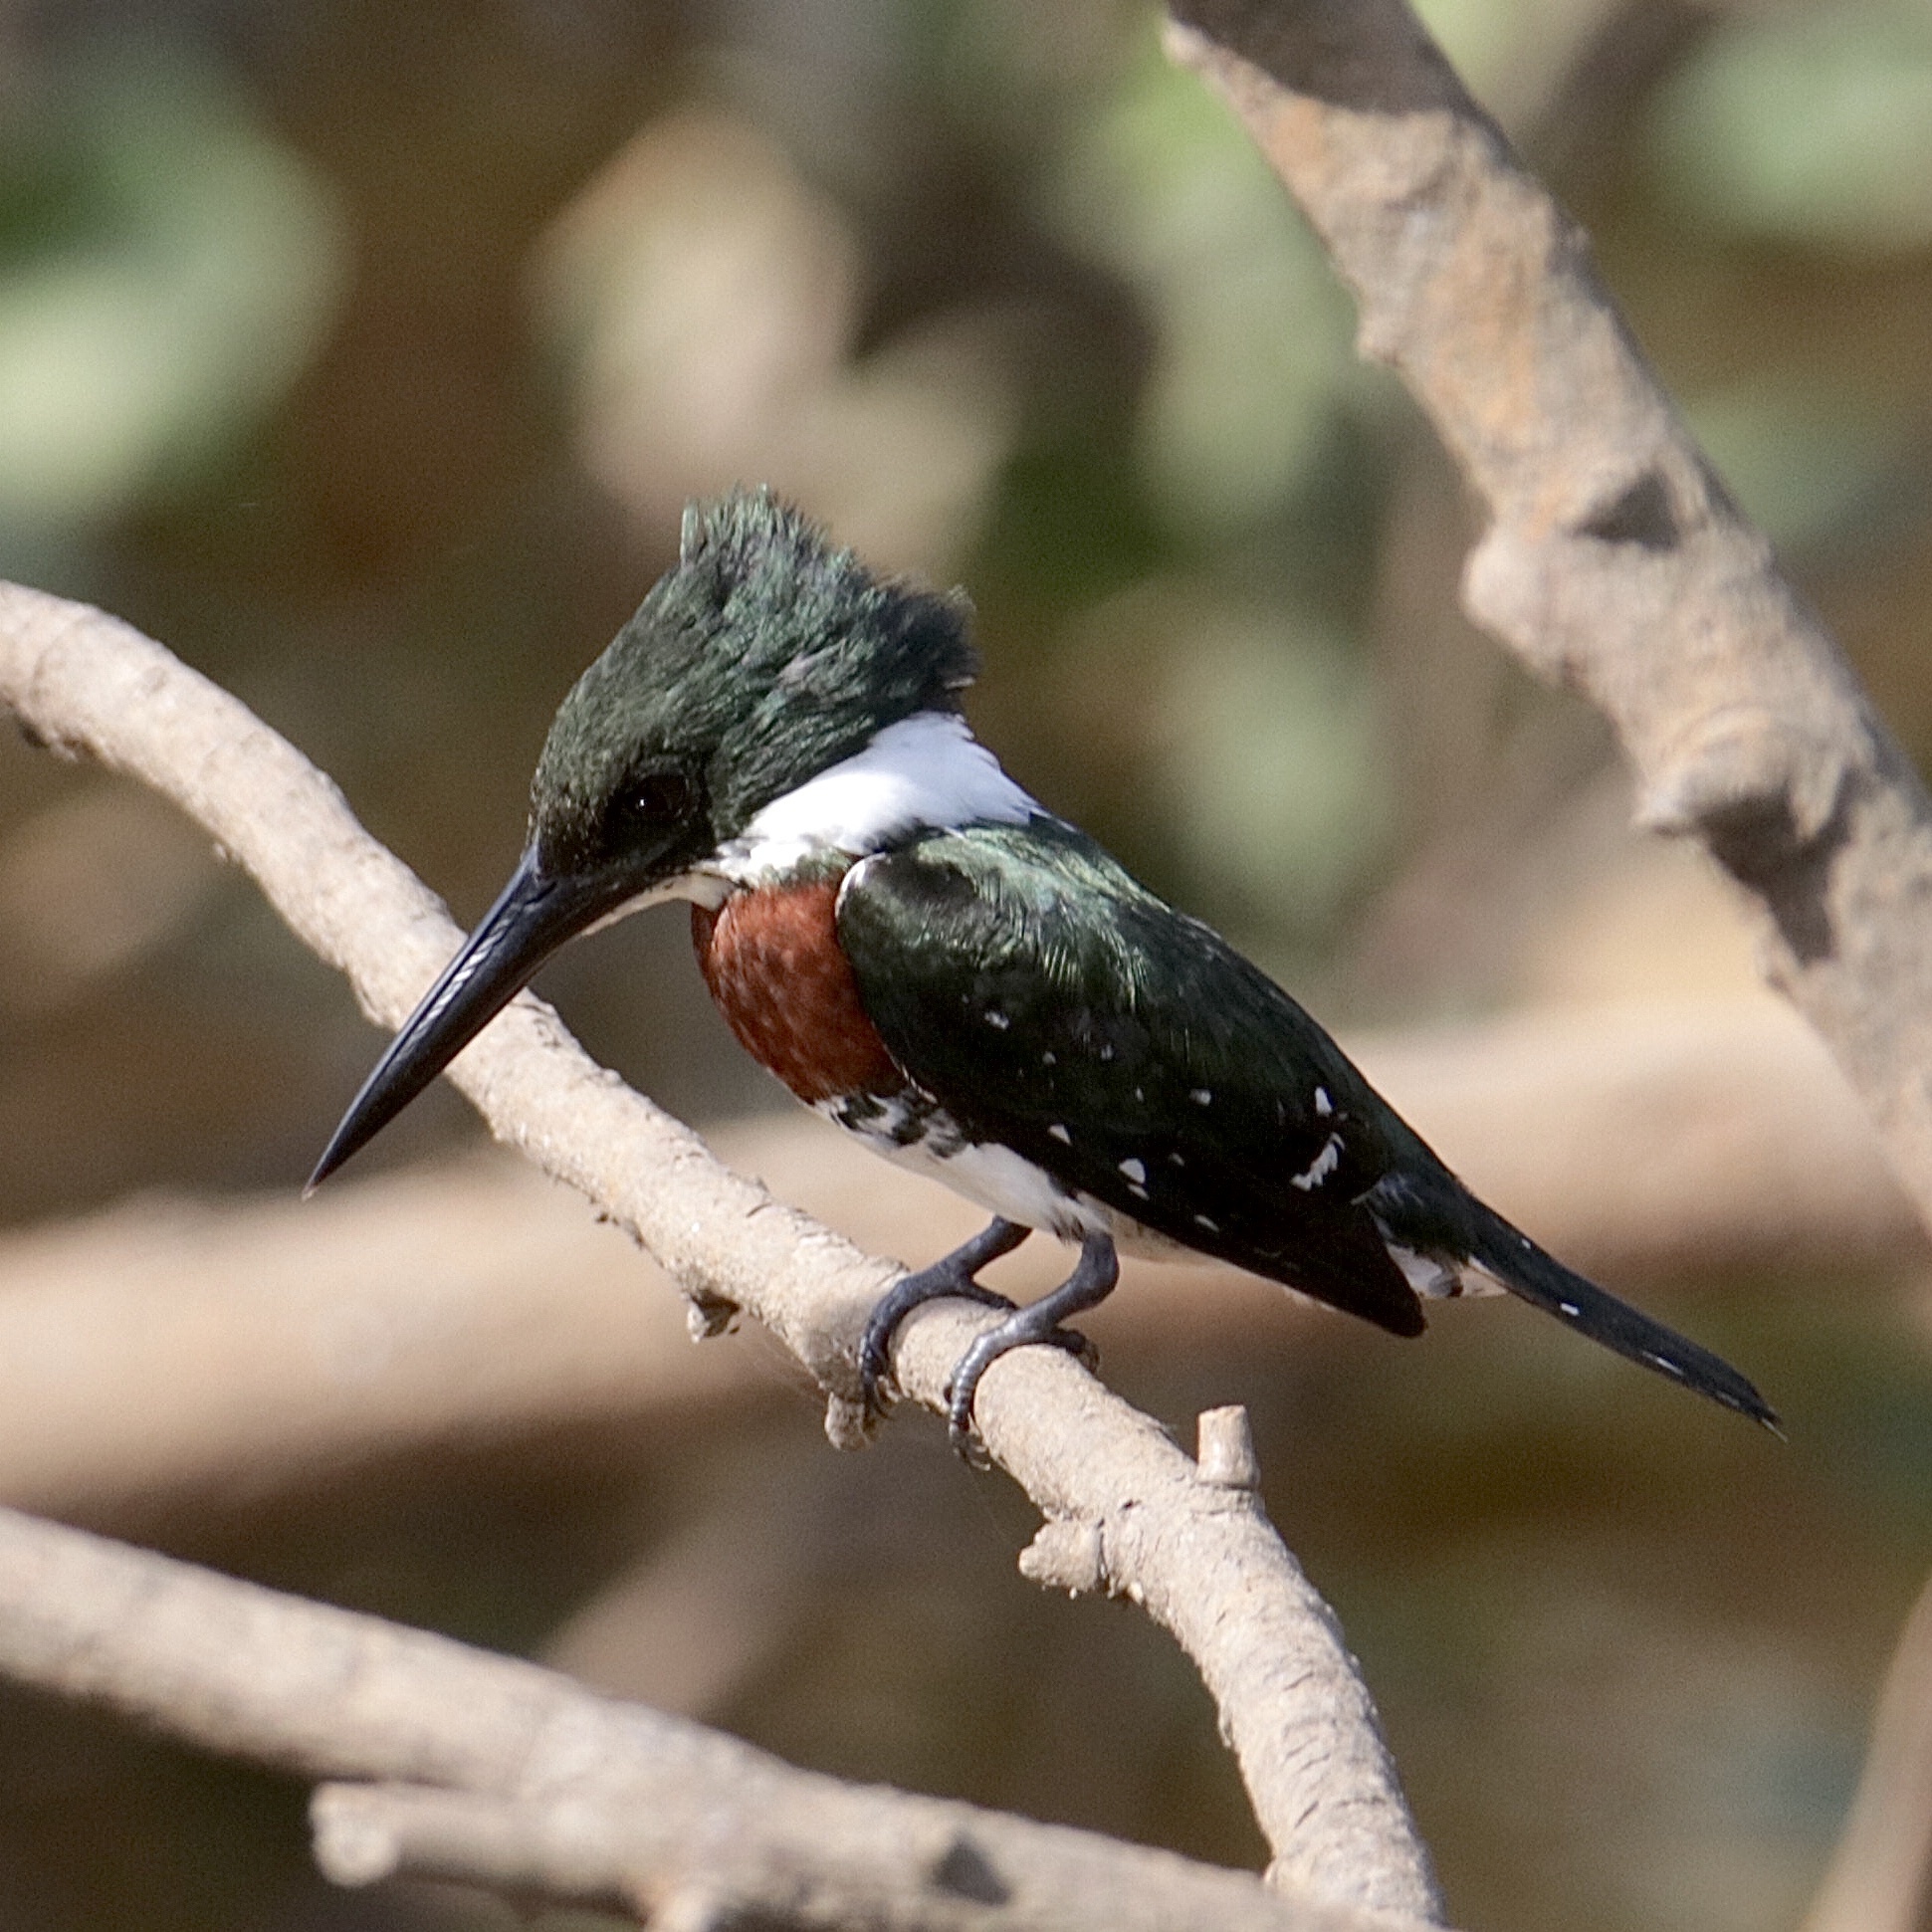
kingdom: Animalia
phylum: Chordata
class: Aves
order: Coraciiformes
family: Alcedinidae
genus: Chloroceryle
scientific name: Chloroceryle americana
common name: Green kingfisher
